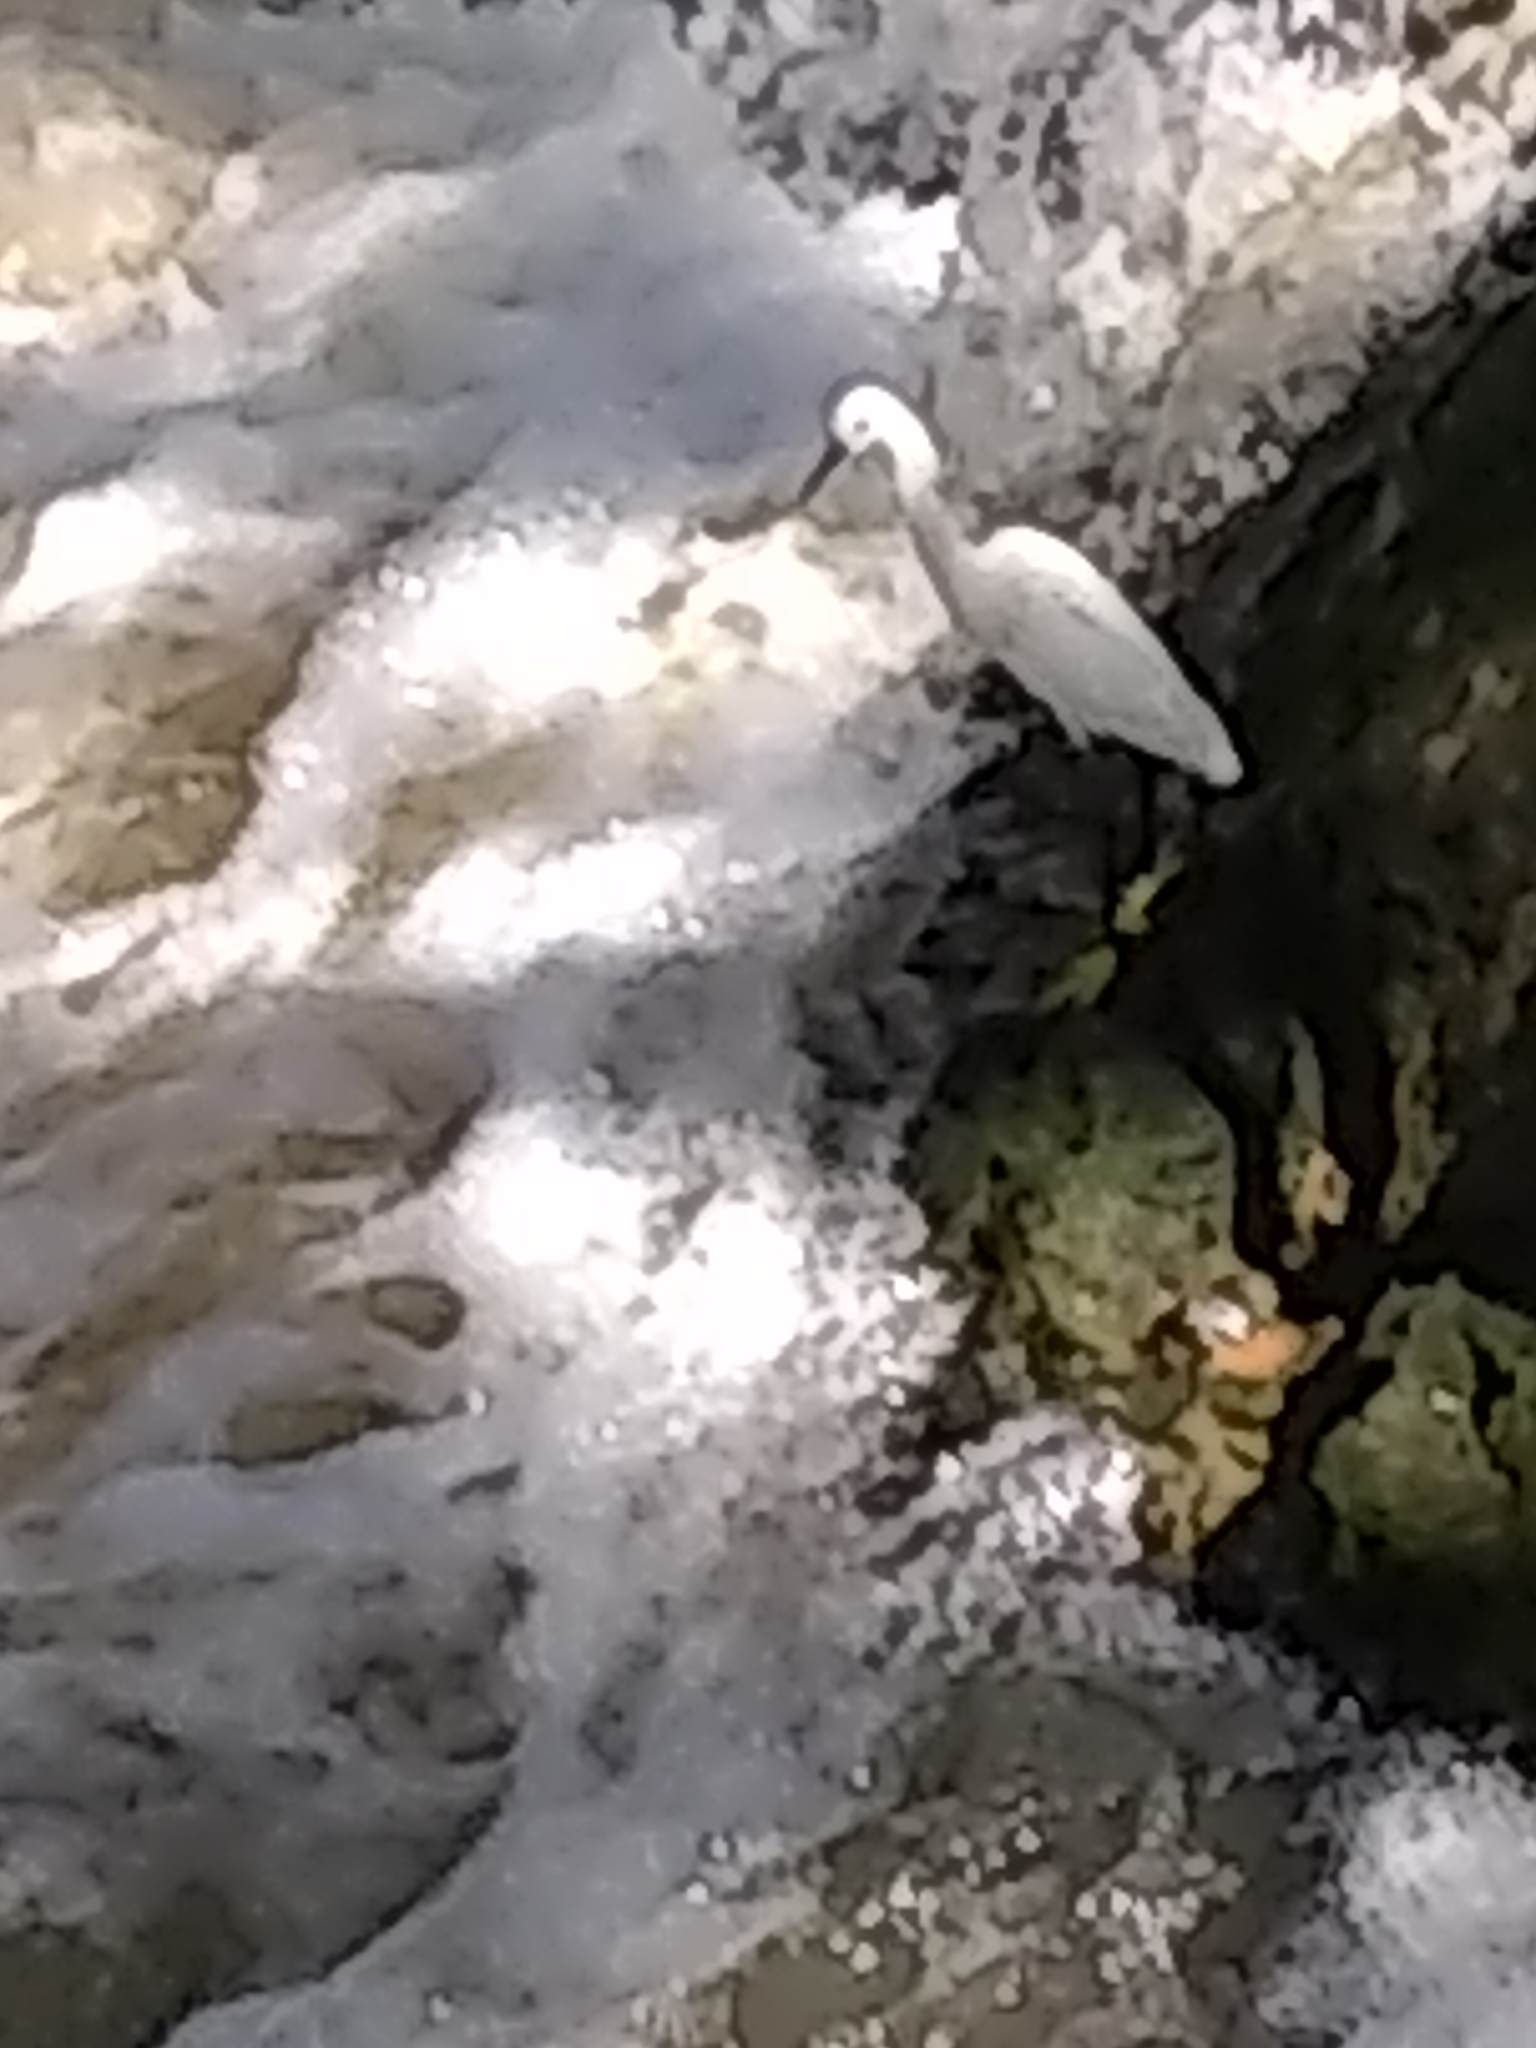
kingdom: Animalia
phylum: Chordata
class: Aves
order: Pelecaniformes
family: Ardeidae
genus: Egretta
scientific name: Egretta thula
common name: Snowy egret
